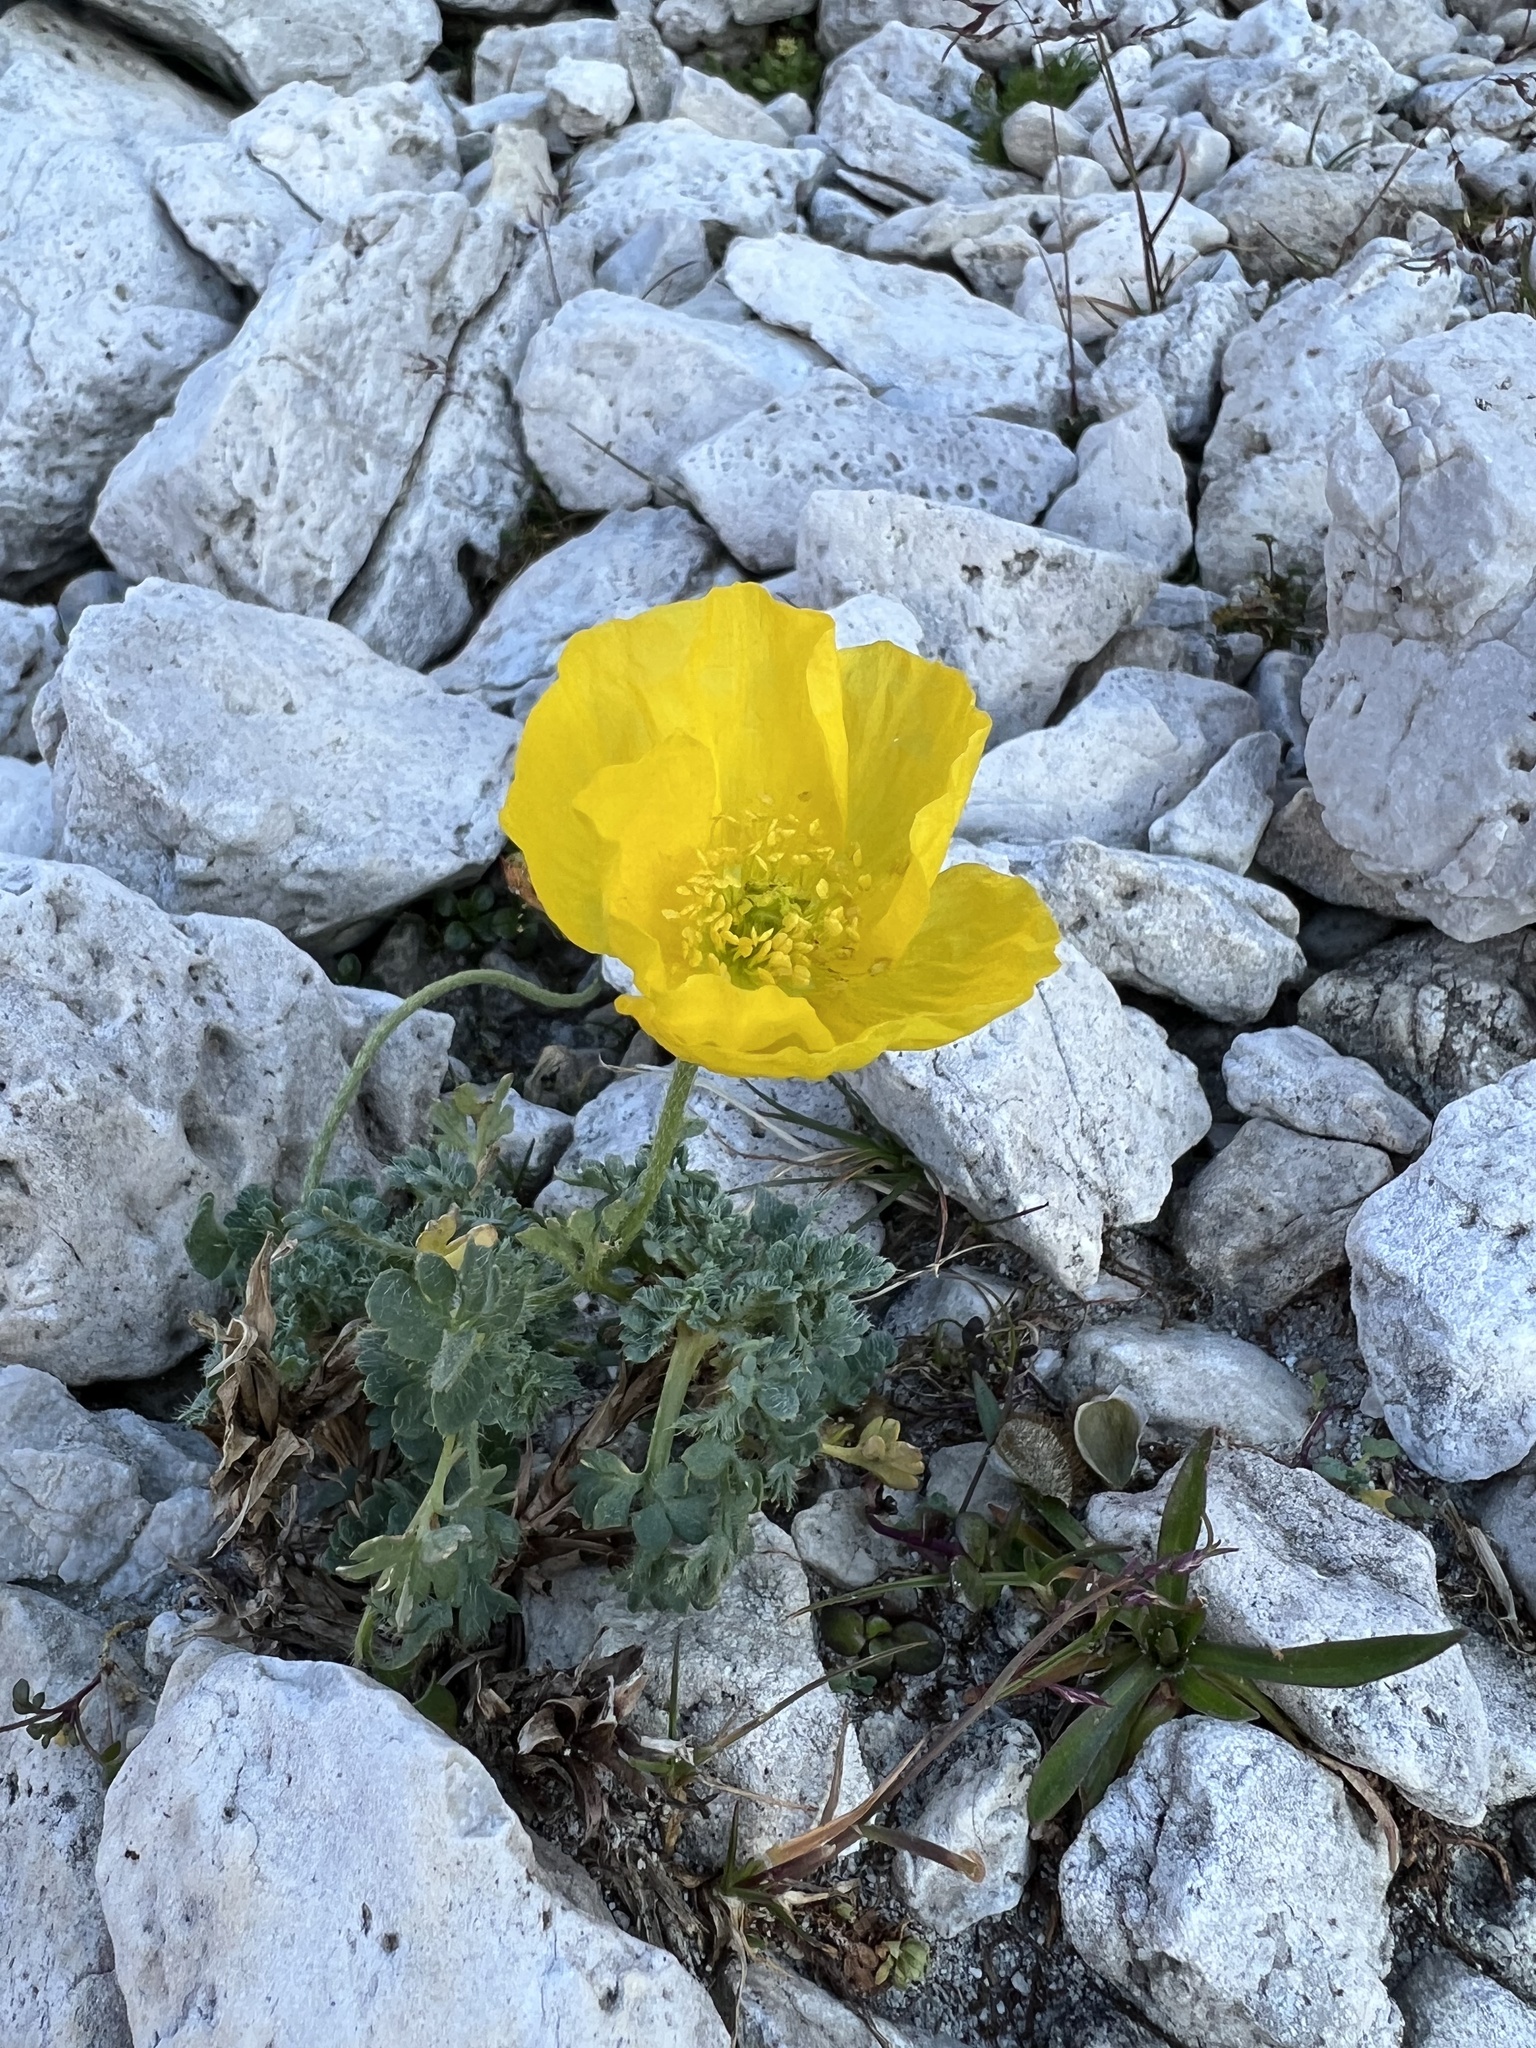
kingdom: Plantae
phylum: Tracheophyta
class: Magnoliopsida
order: Ranunculales
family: Papaveraceae
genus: Papaver
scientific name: Papaver alpinum
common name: Austrian poppy
